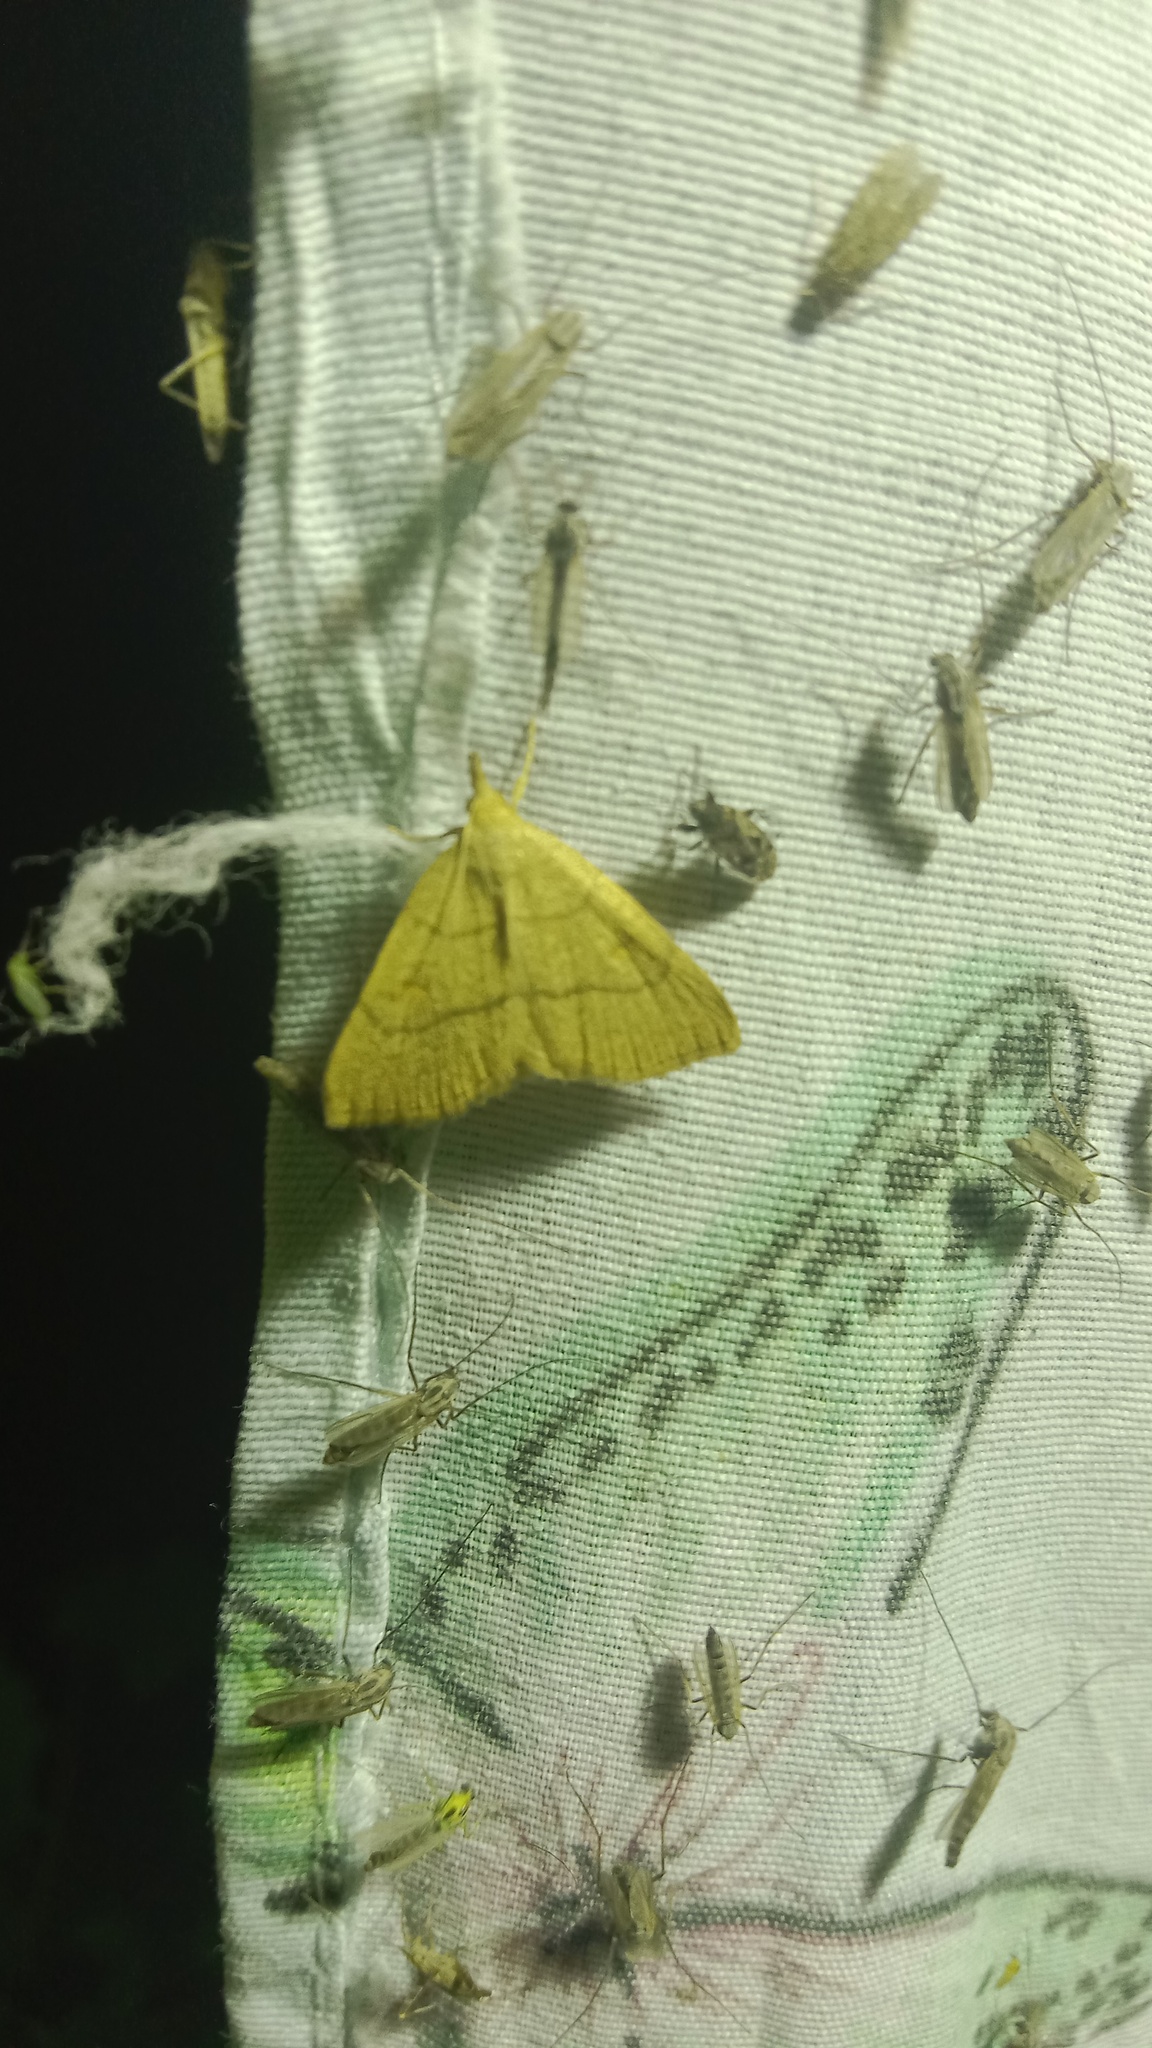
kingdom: Animalia
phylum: Arthropoda
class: Insecta
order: Lepidoptera
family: Erebidae
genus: Paracolax
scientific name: Paracolax tristalis
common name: Clay fan-foot
